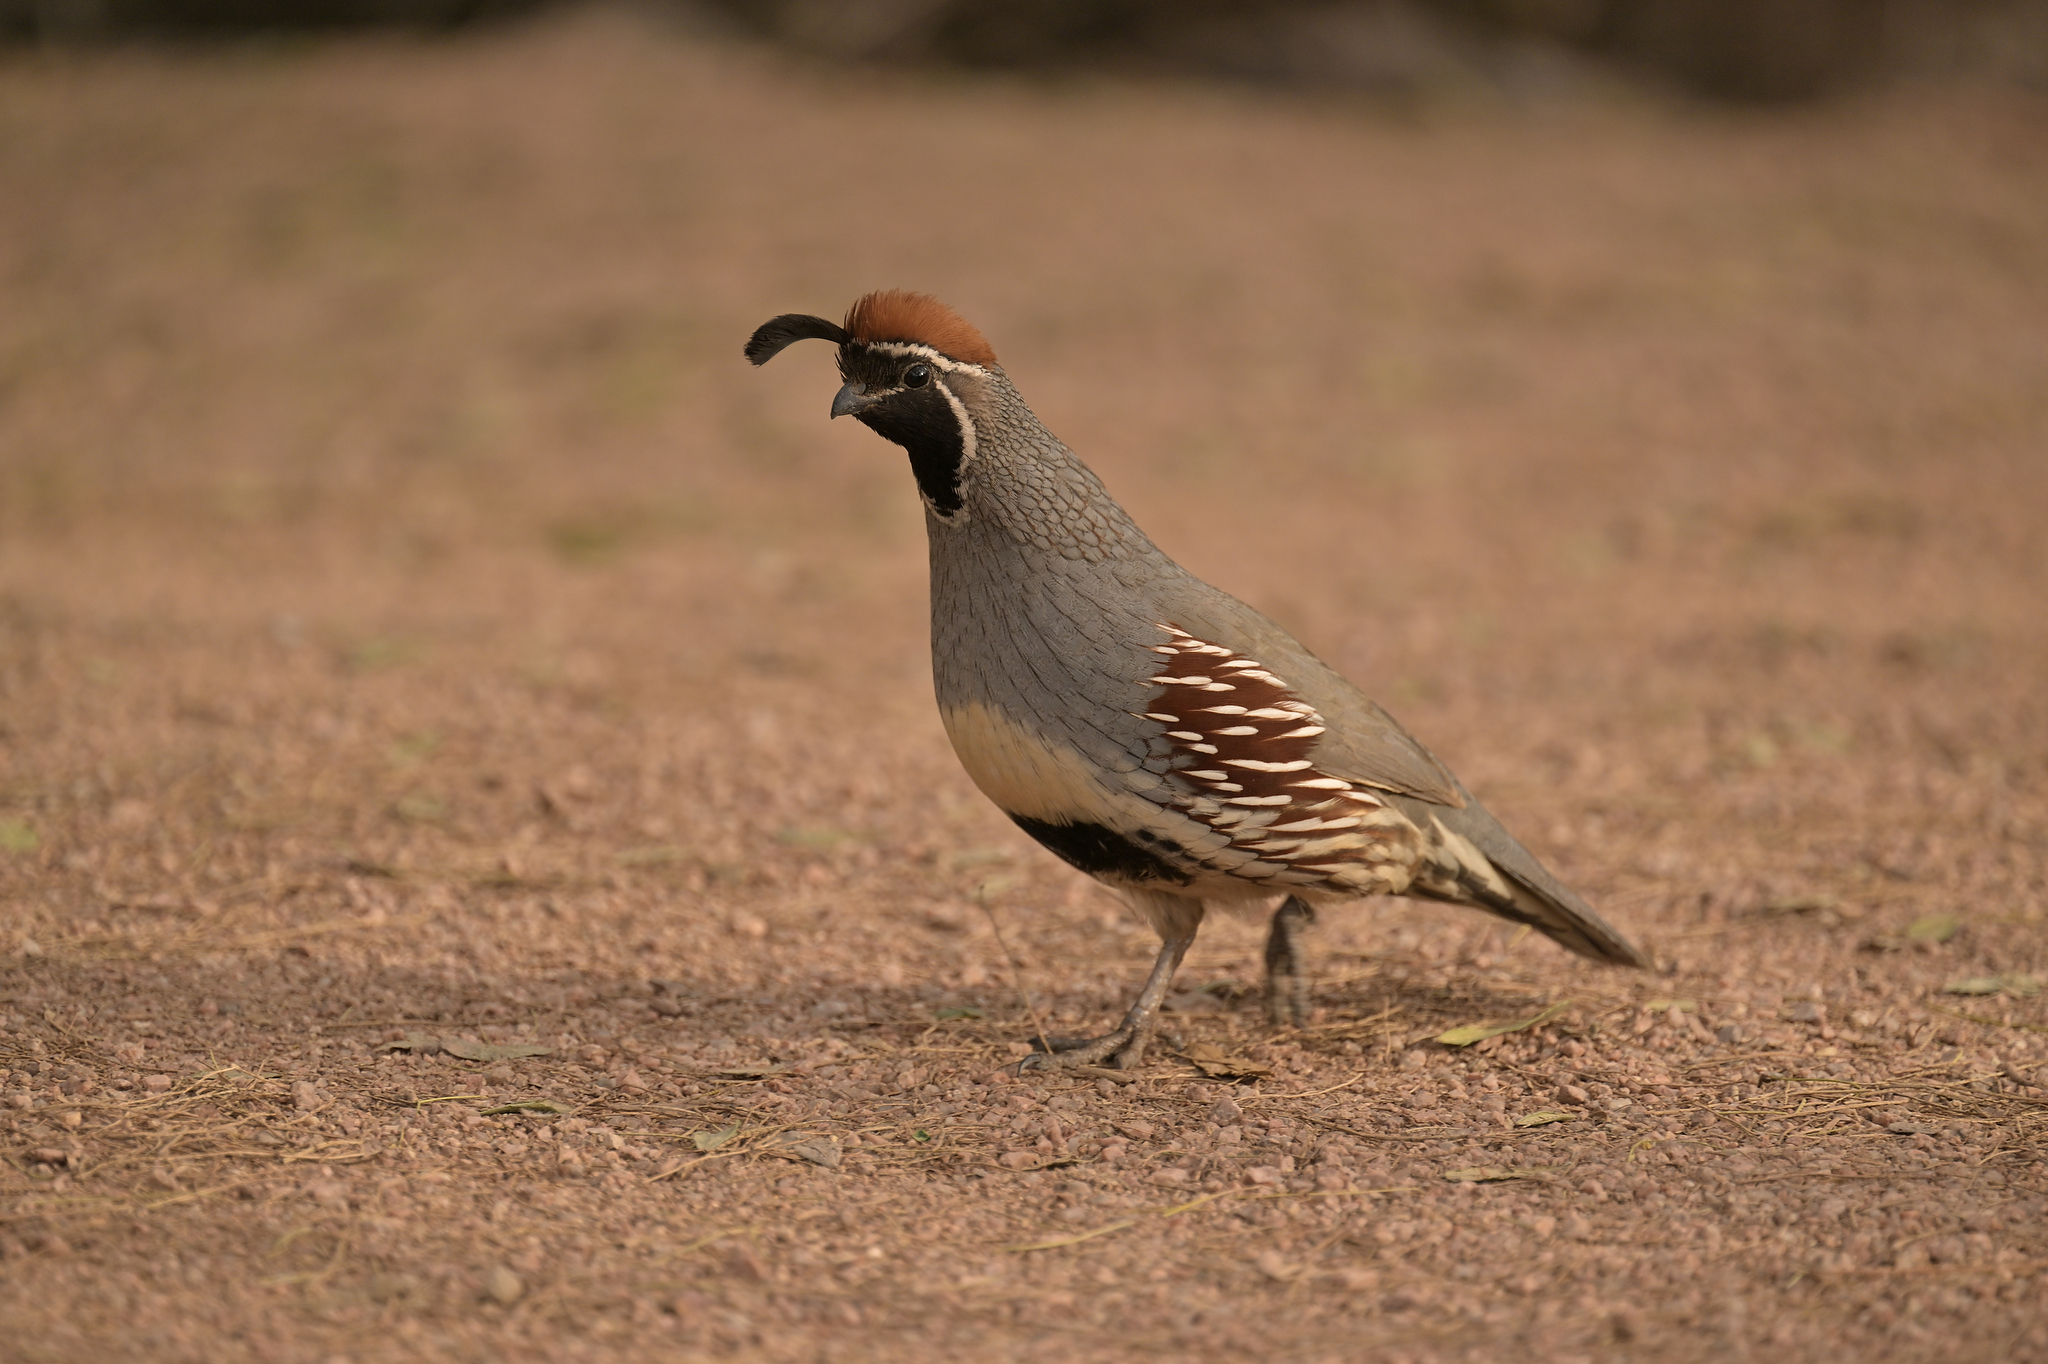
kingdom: Animalia
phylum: Chordata
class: Aves
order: Galliformes
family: Odontophoridae
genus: Callipepla
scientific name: Callipepla gambelii
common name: Gambel's quail
